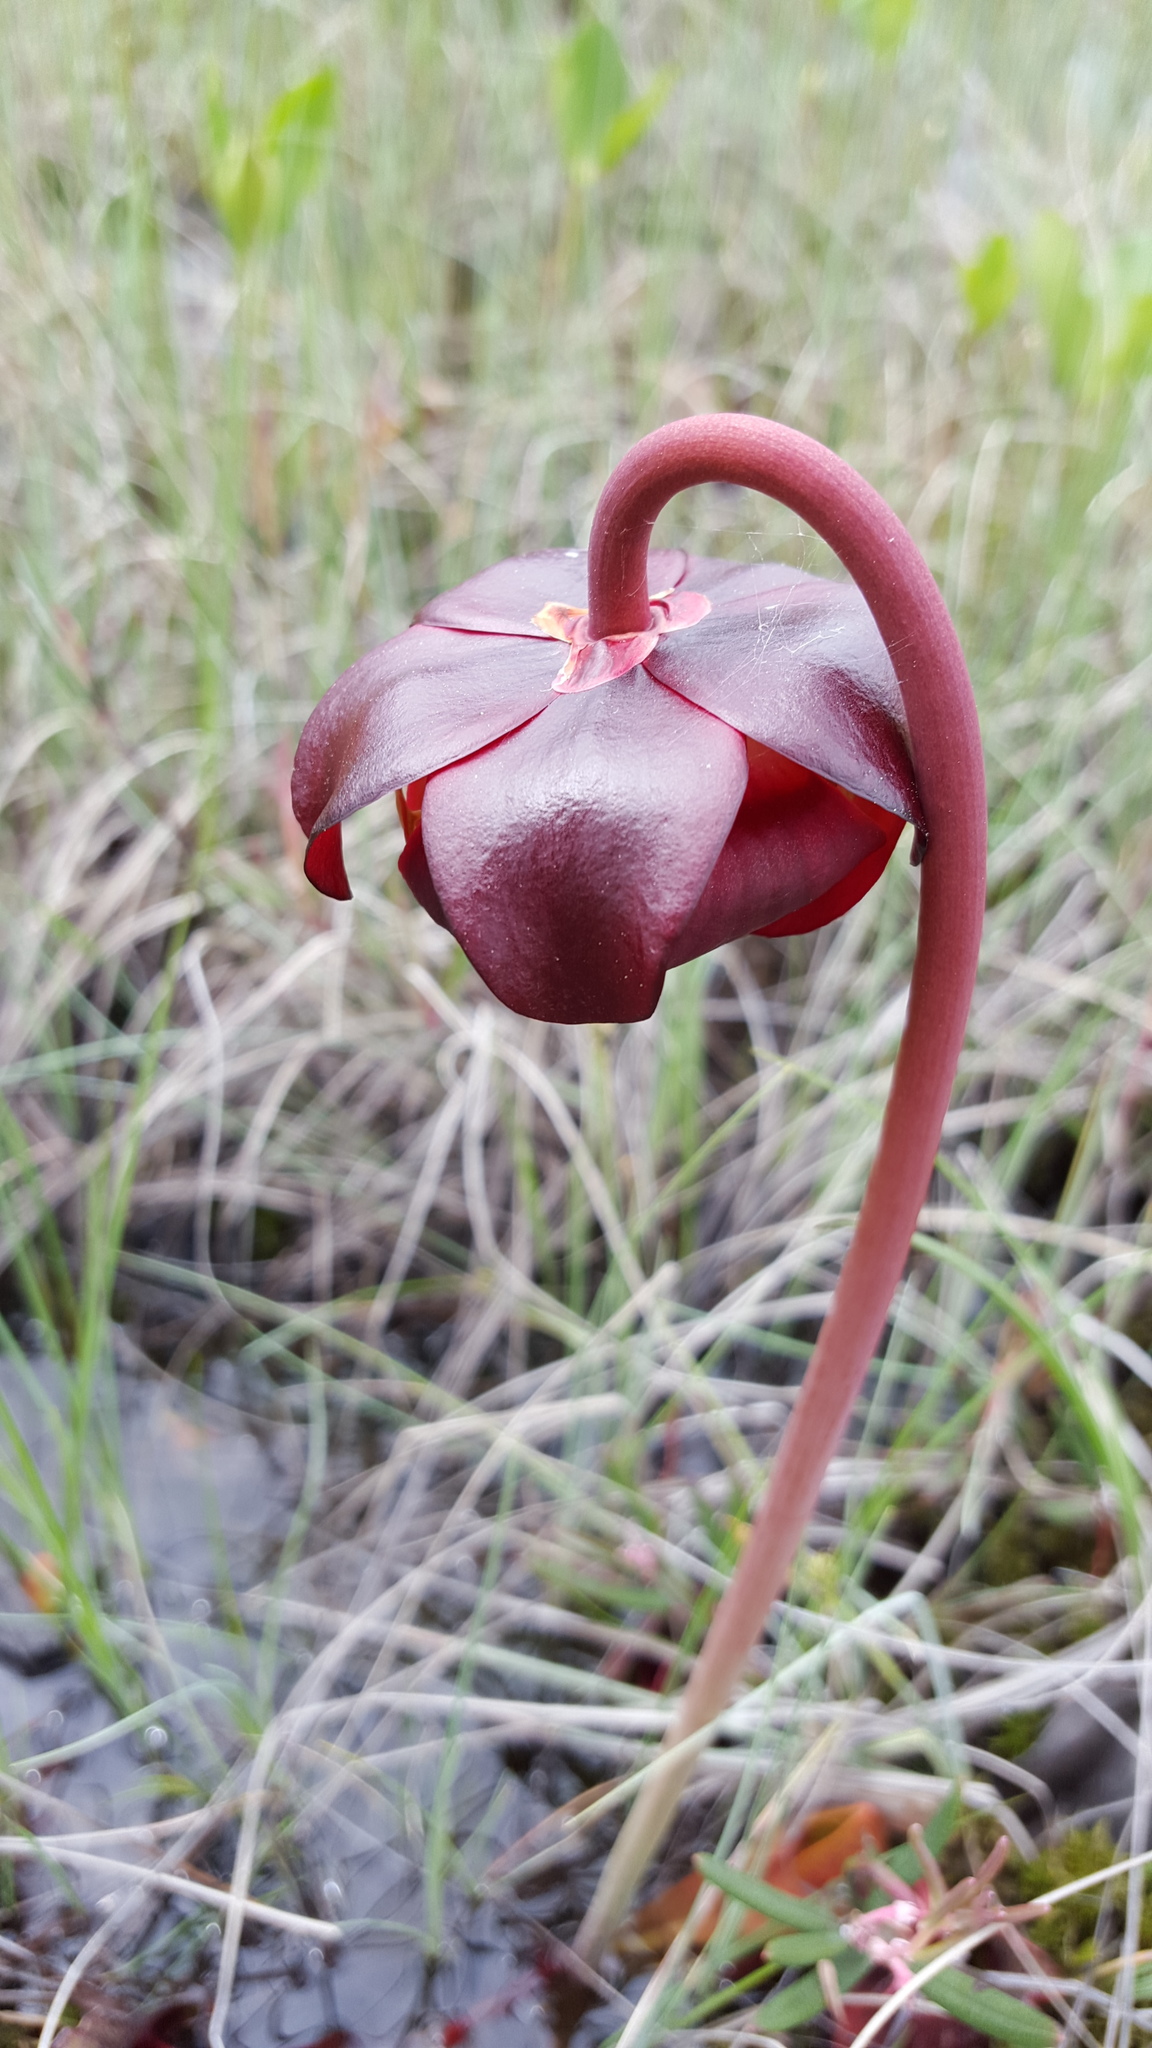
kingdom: Plantae
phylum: Tracheophyta
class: Magnoliopsida
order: Ericales
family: Sarraceniaceae
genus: Sarracenia
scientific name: Sarracenia purpurea
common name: Pitcherplant
